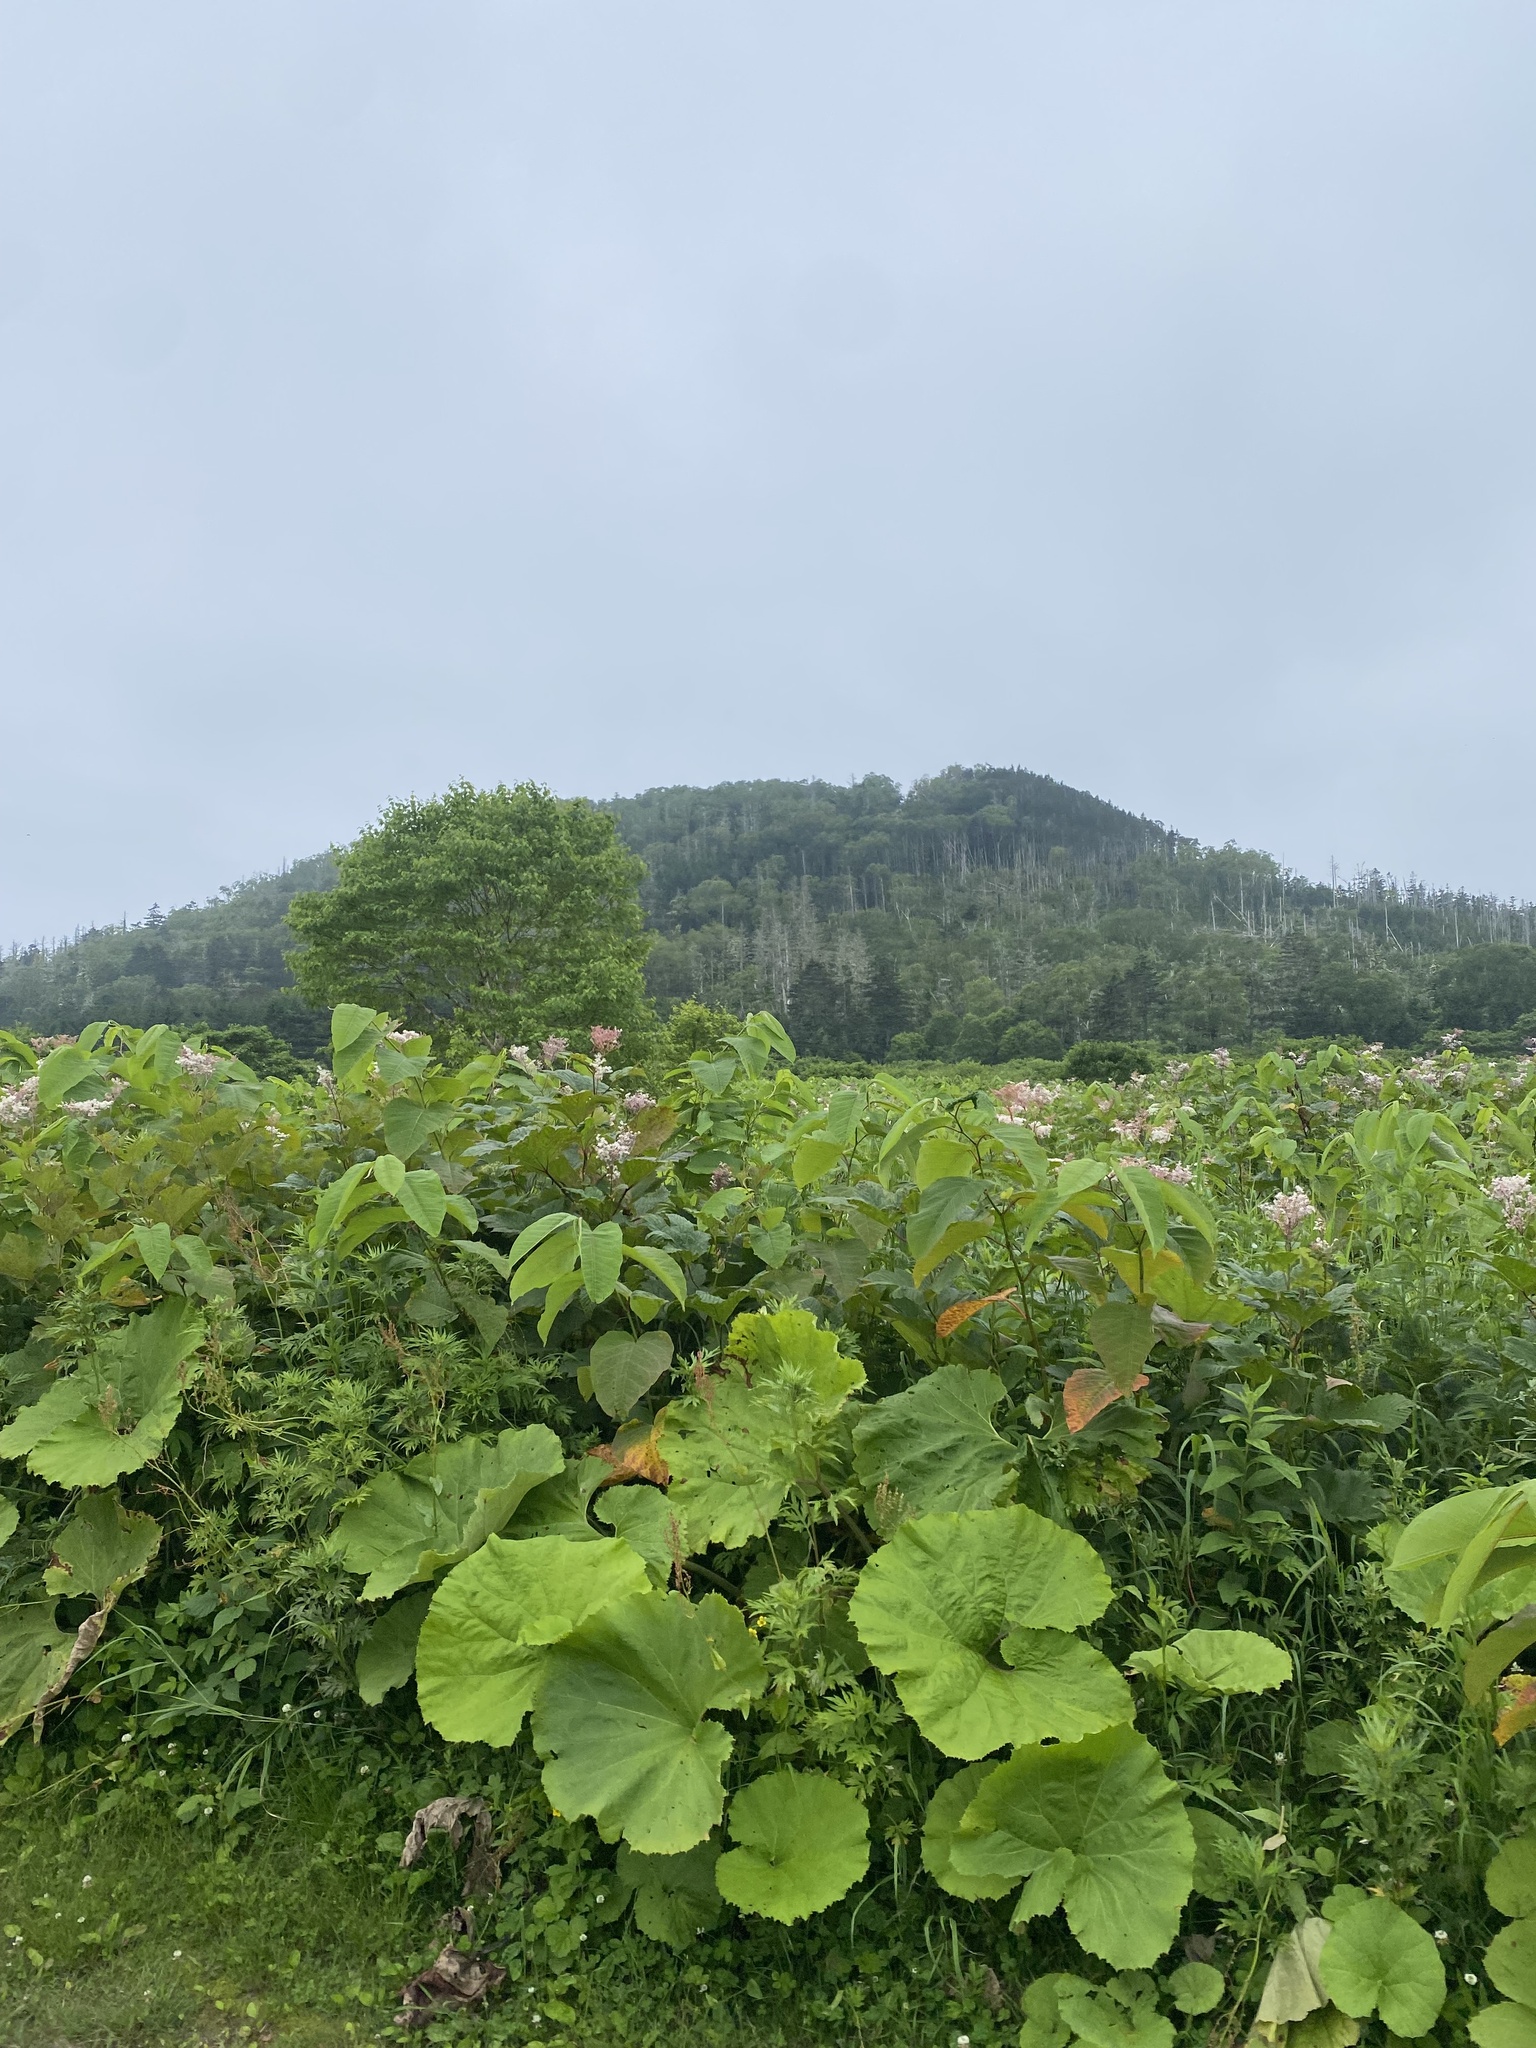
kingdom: Plantae
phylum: Tracheophyta
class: Magnoliopsida
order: Rosales
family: Rosaceae
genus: Filipendula
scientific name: Filipendula camtschatica
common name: Giant meadowsweet
